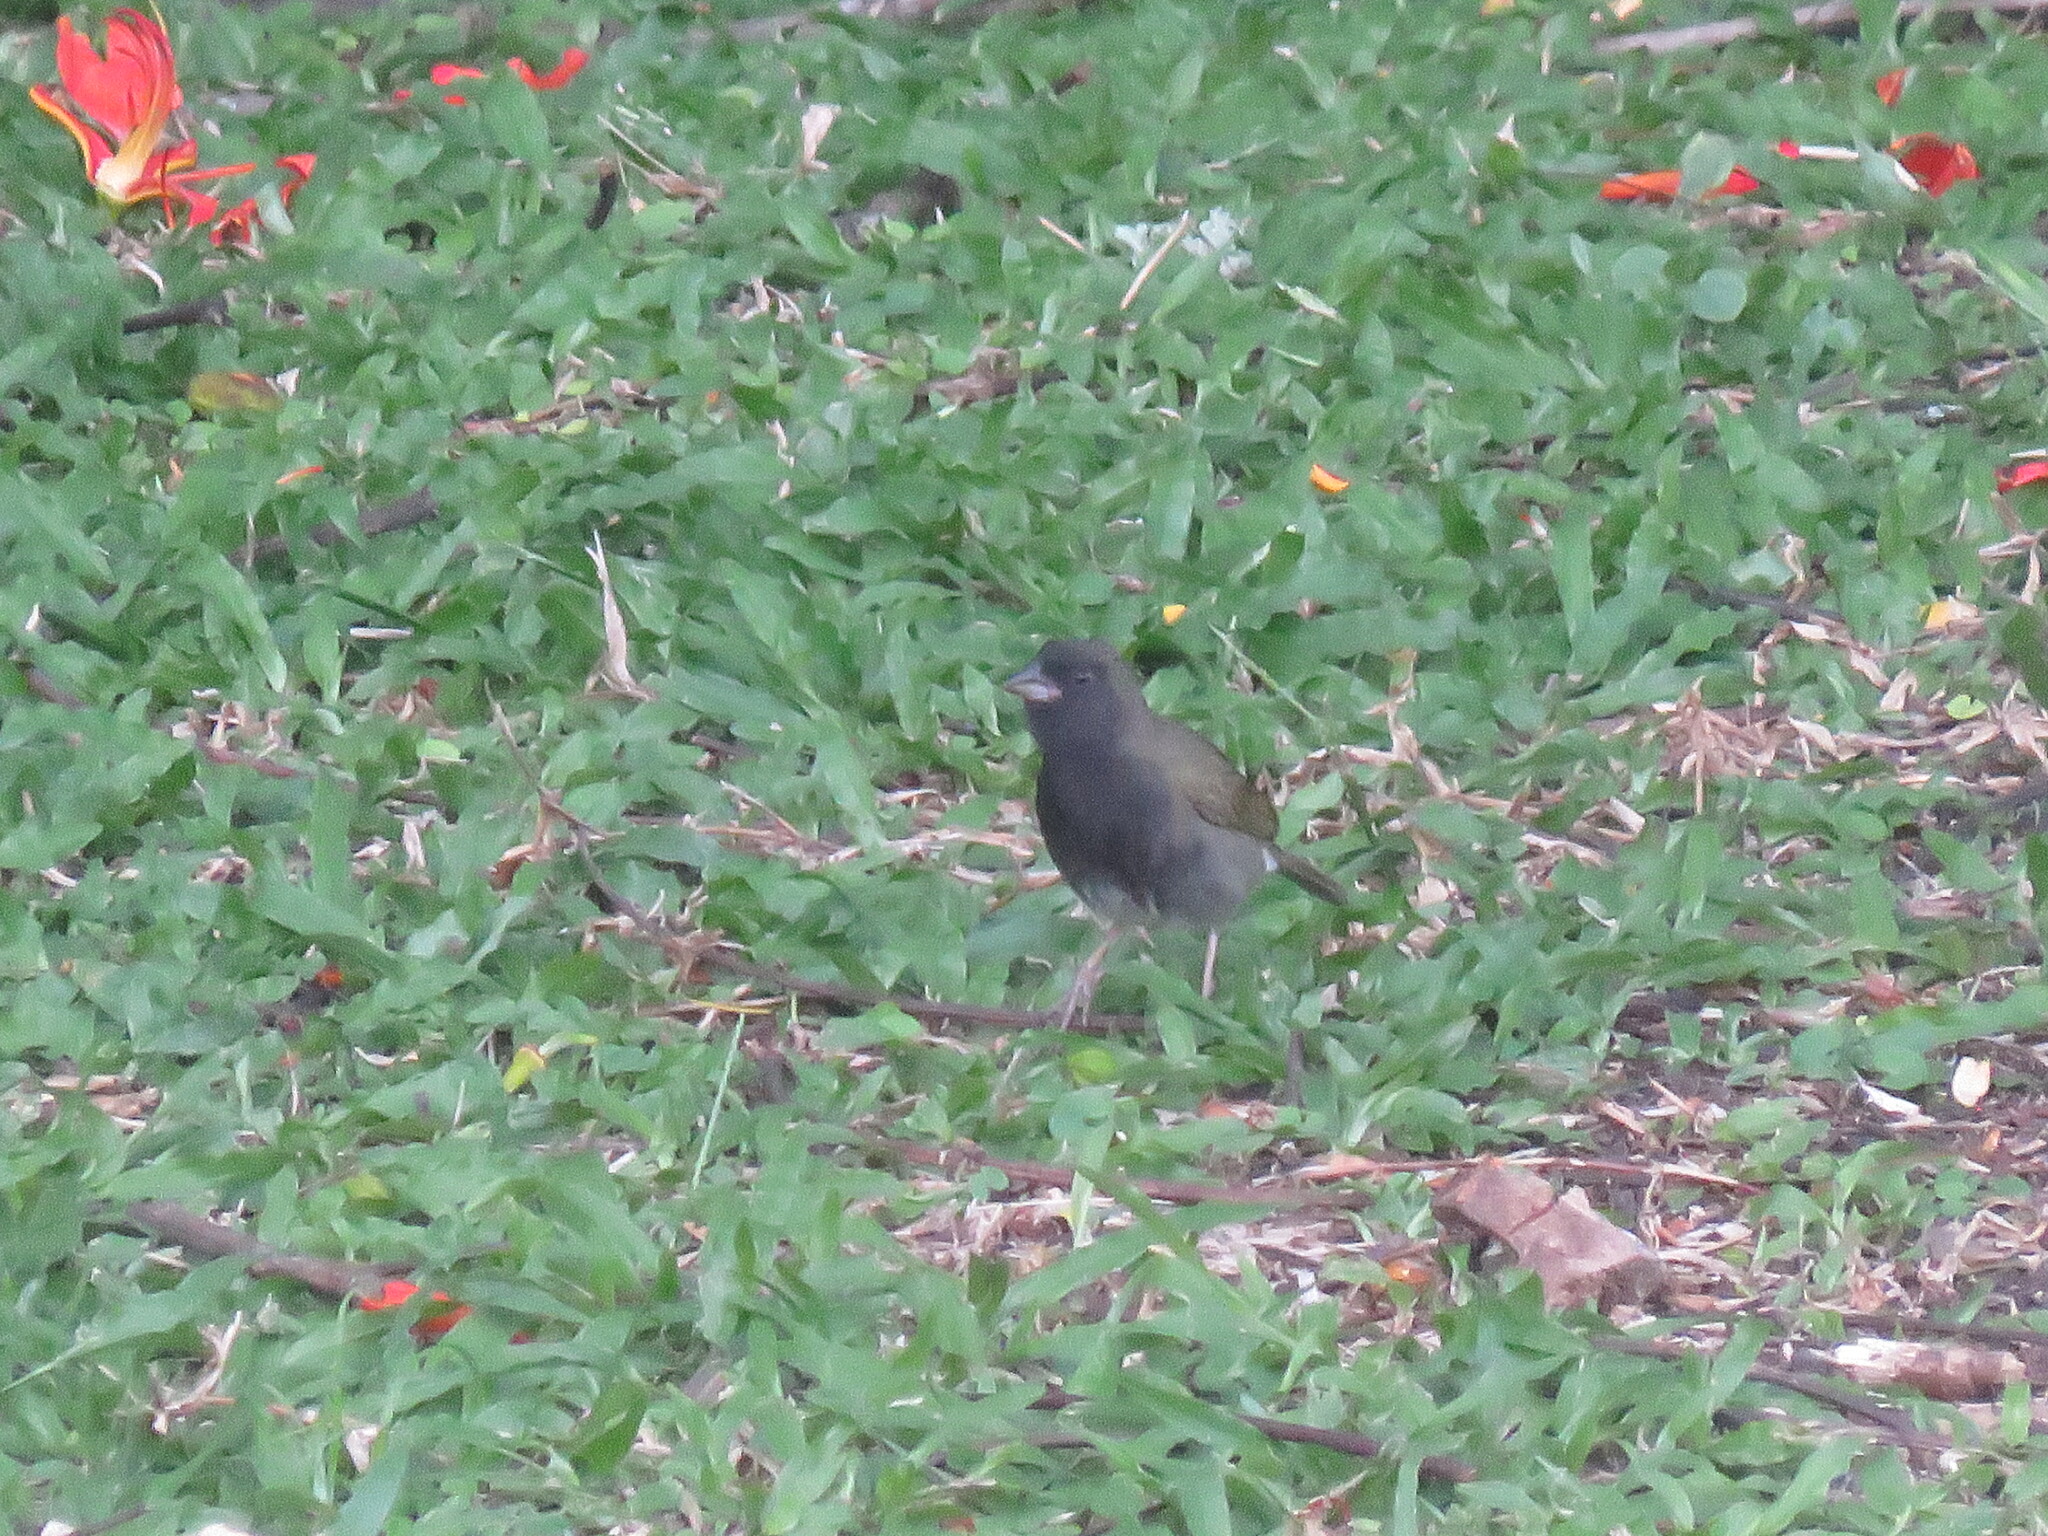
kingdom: Animalia
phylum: Chordata
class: Aves
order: Passeriformes
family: Thraupidae
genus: Melanospiza
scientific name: Melanospiza bicolor
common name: Black-faced grassquit
